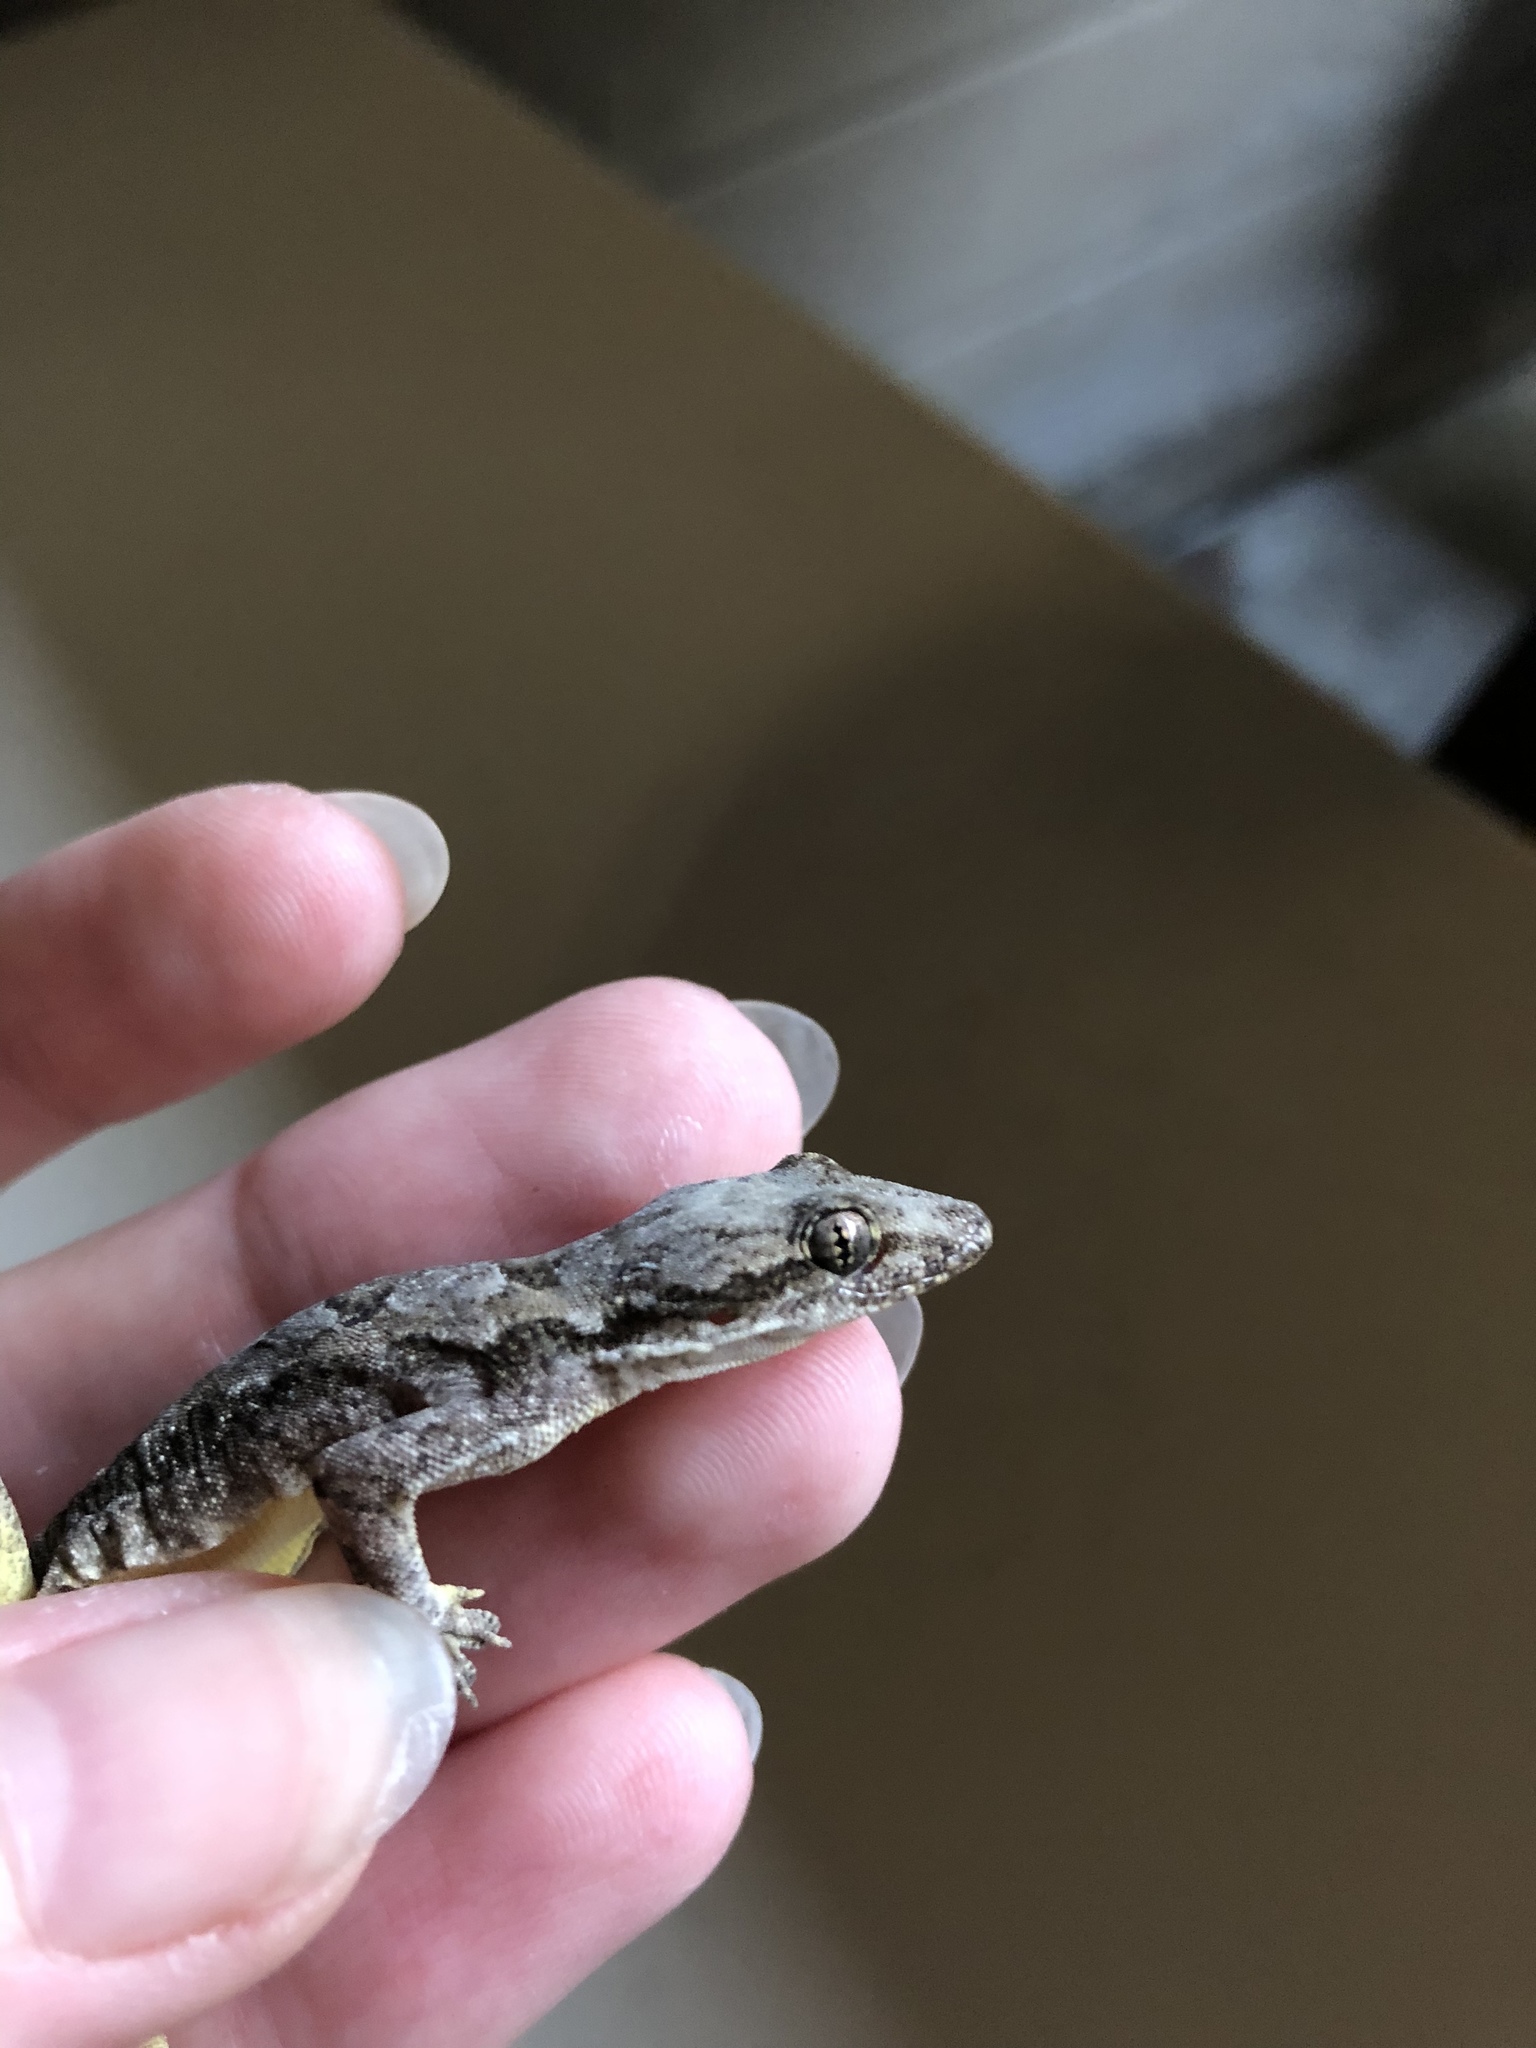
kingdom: Animalia
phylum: Chordata
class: Squamata
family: Gekkonidae
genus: Hemidactylus
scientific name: Hemidactylus platyurus
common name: Flat-tailed house gecko
